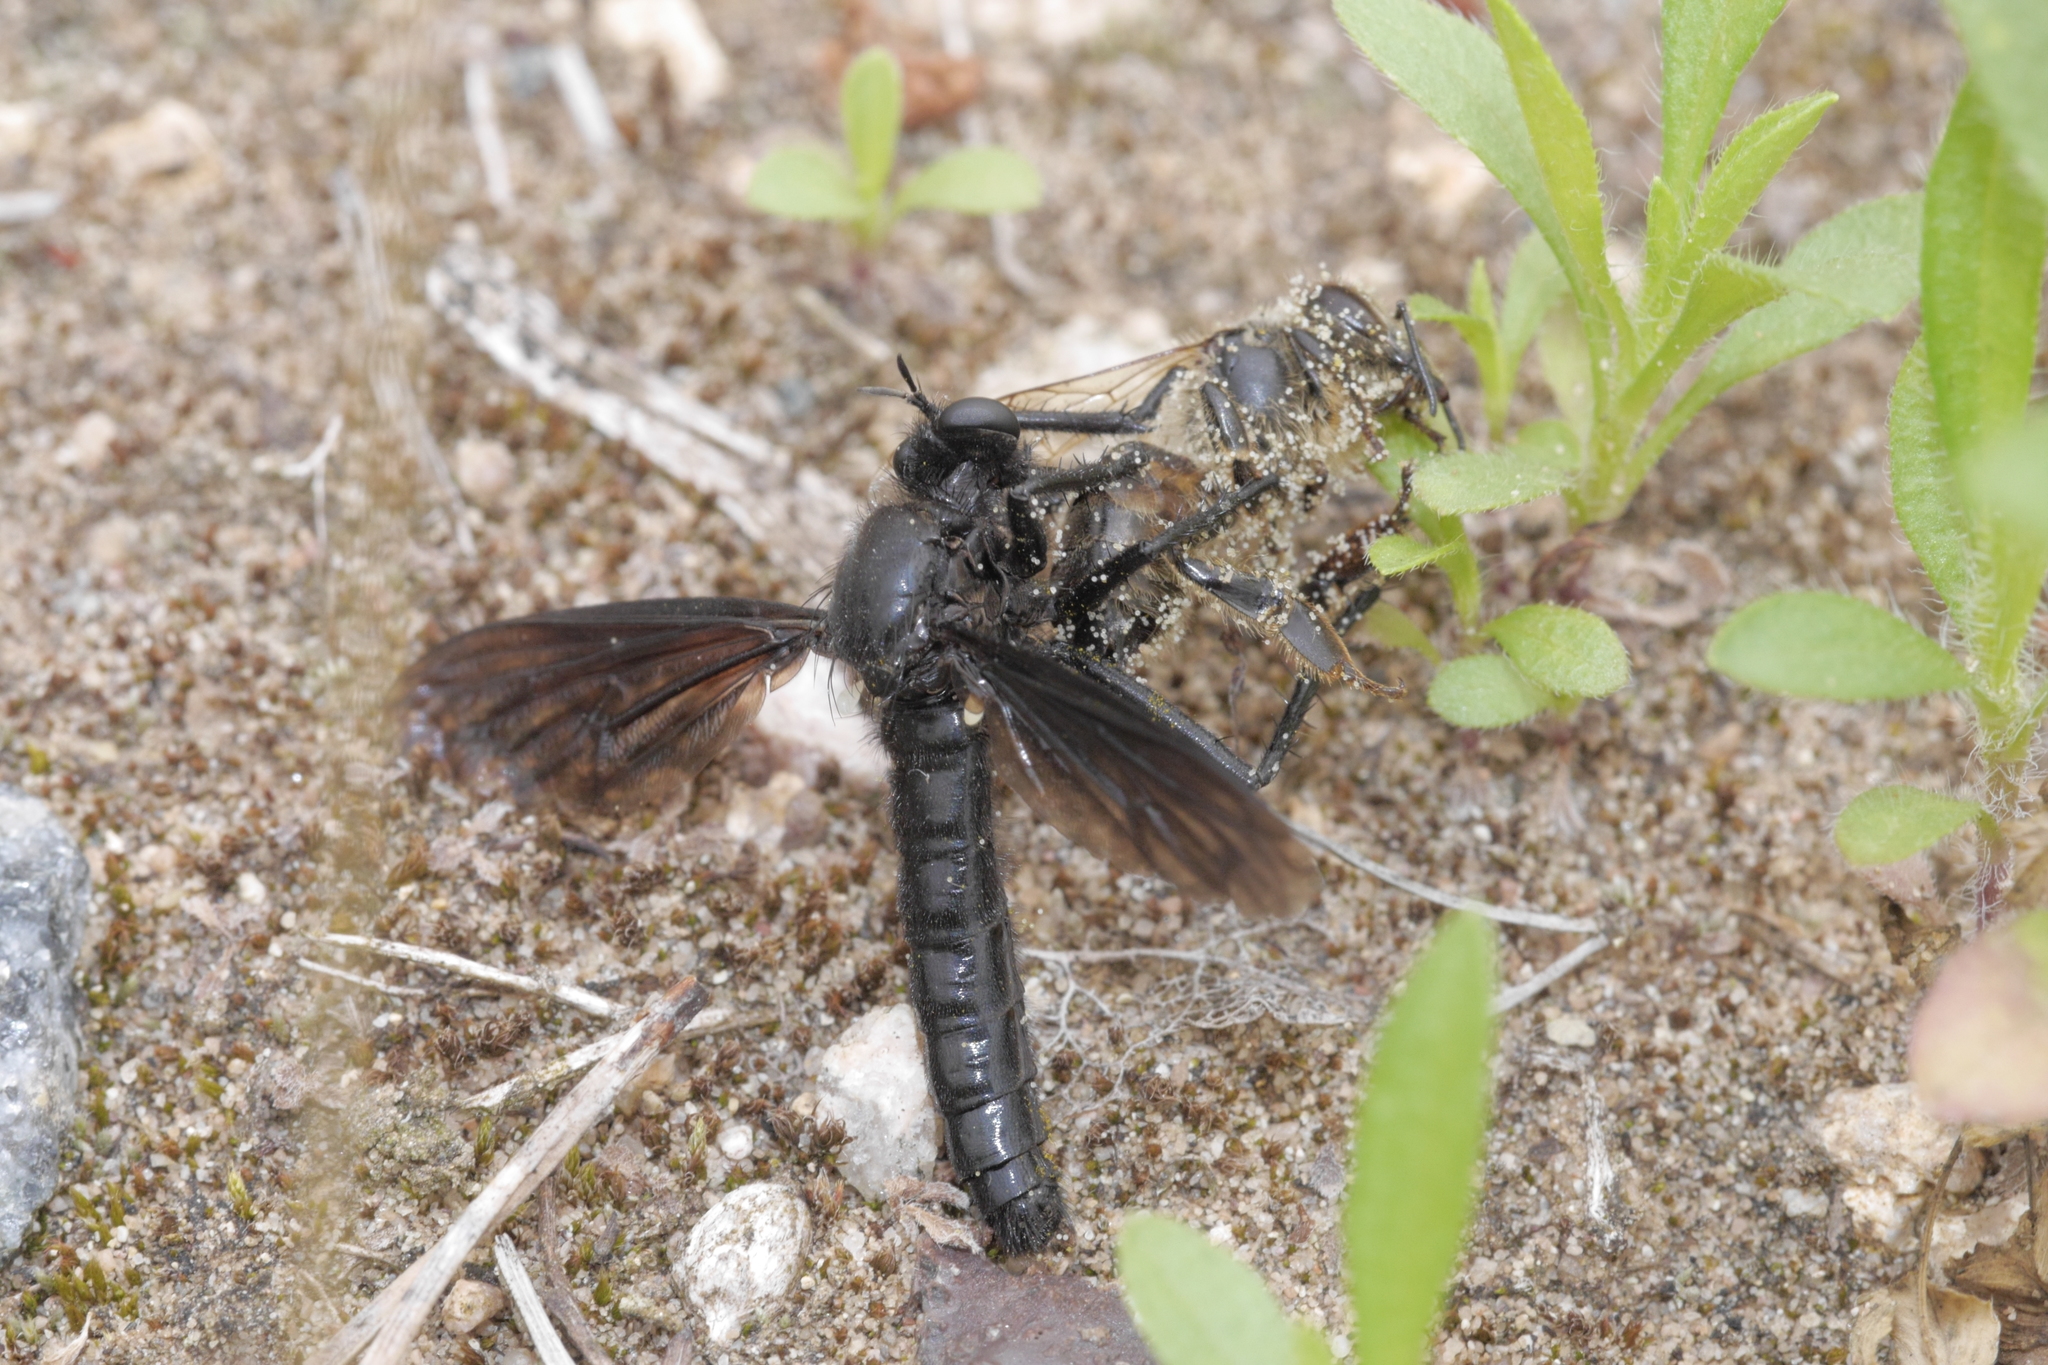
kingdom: Animalia
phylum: Arthropoda
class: Insecta
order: Diptera
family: Asilidae
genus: Dasypogon
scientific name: Dasypogon diadema
